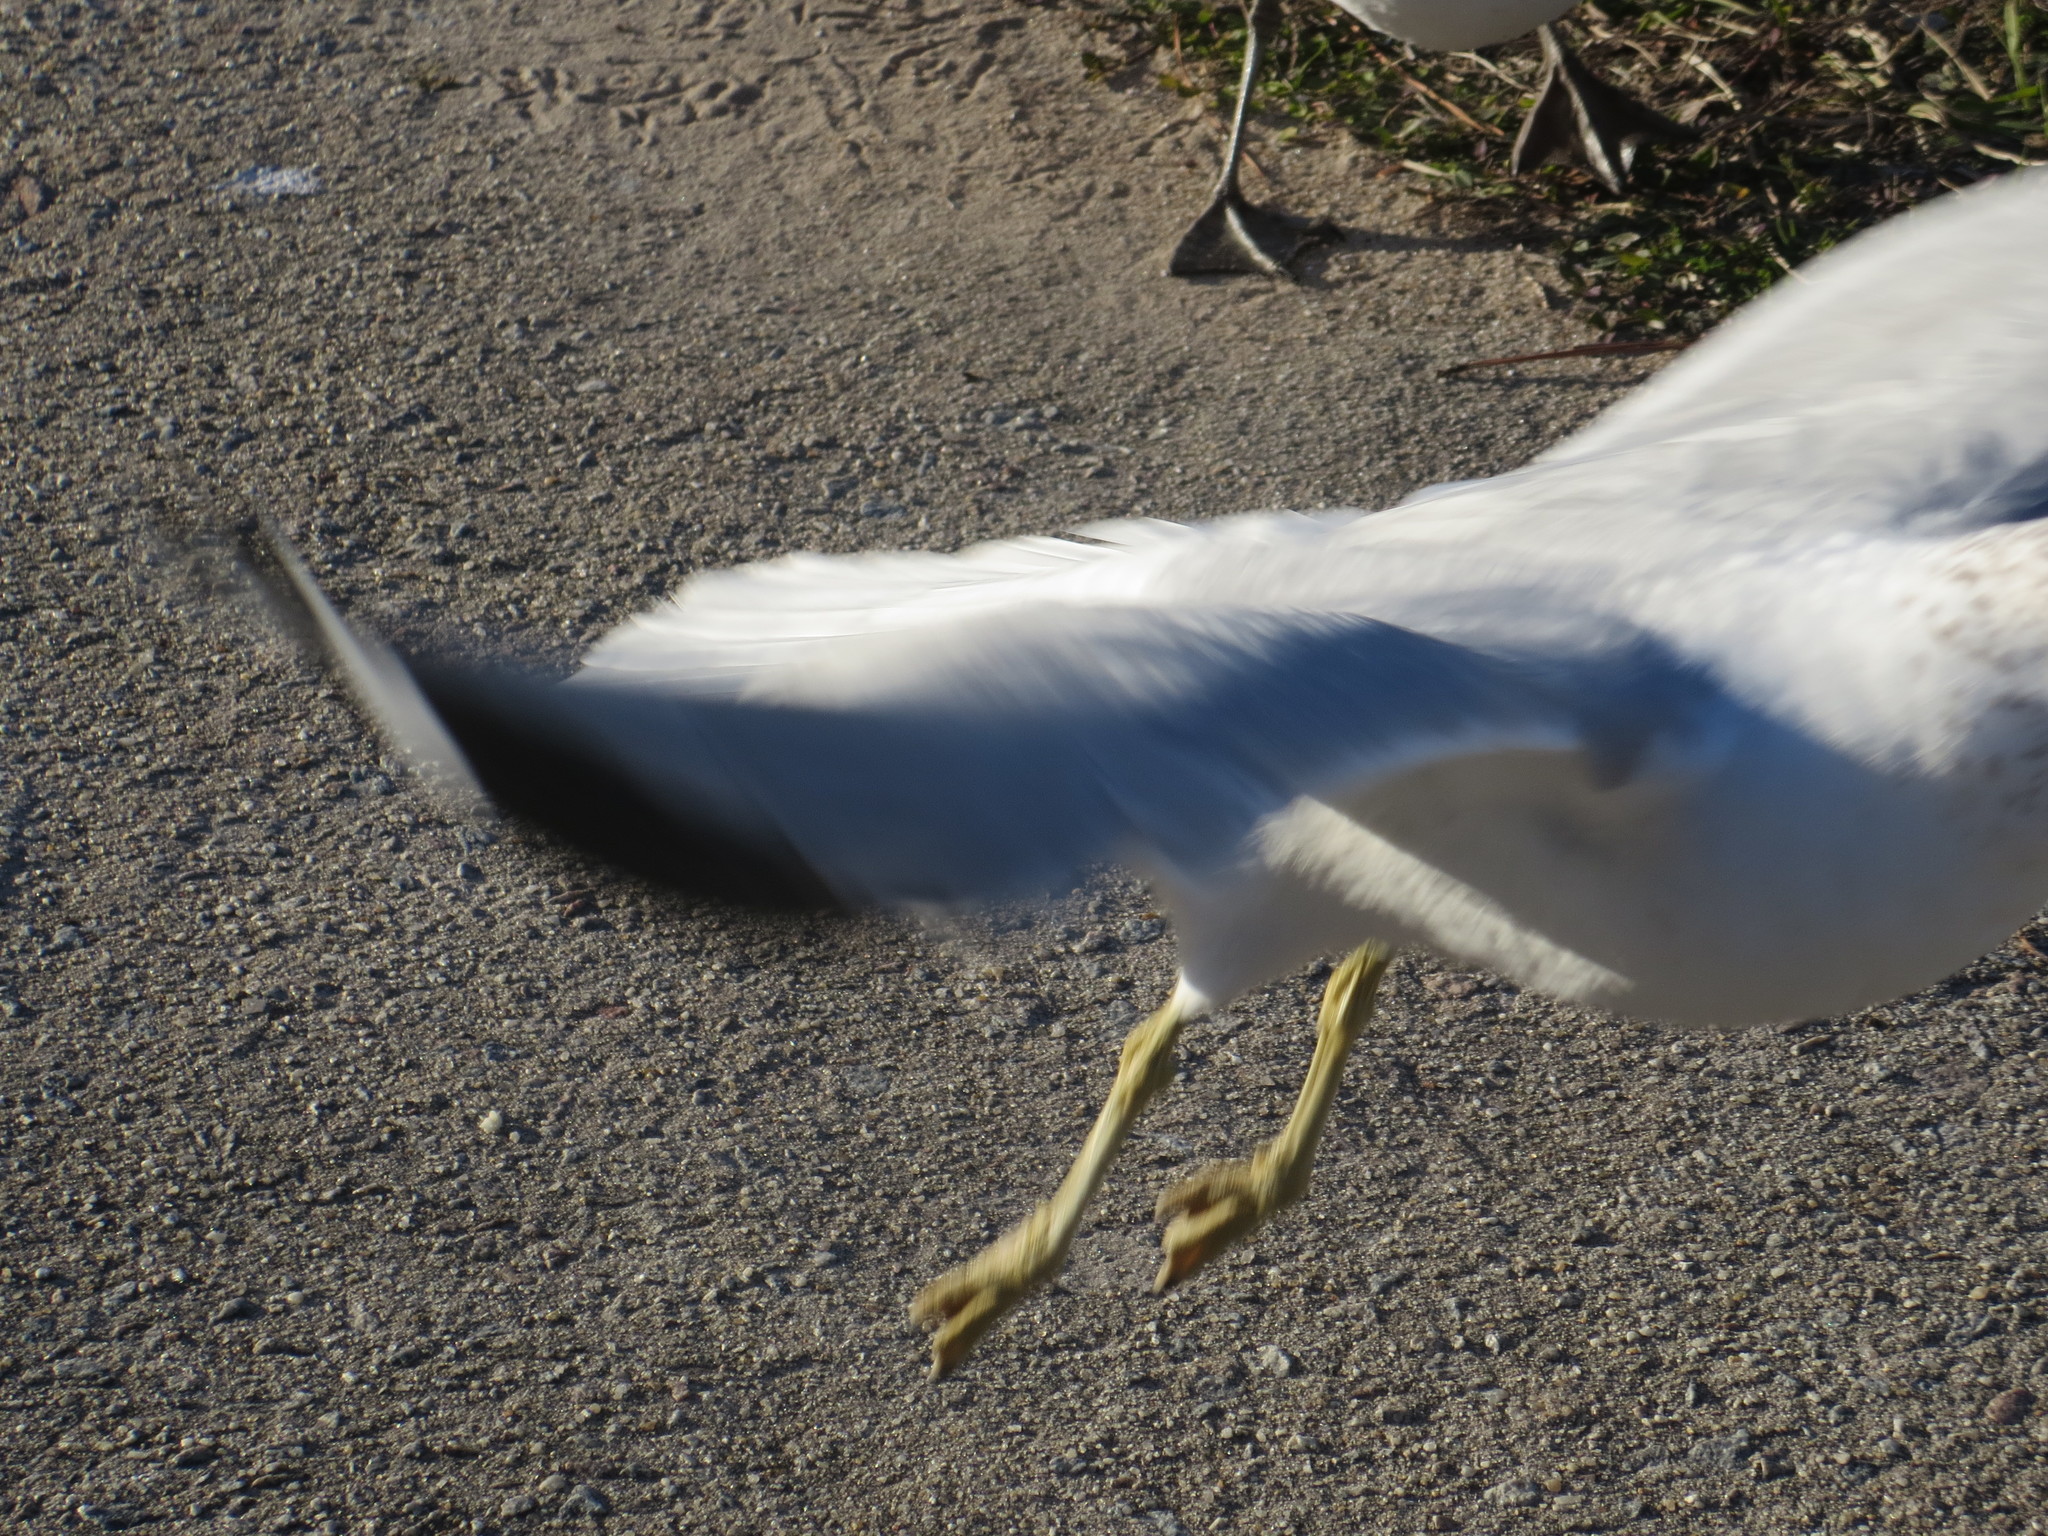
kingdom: Animalia
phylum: Chordata
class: Aves
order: Charadriiformes
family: Laridae
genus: Larus
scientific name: Larus delawarensis
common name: Ring-billed gull
